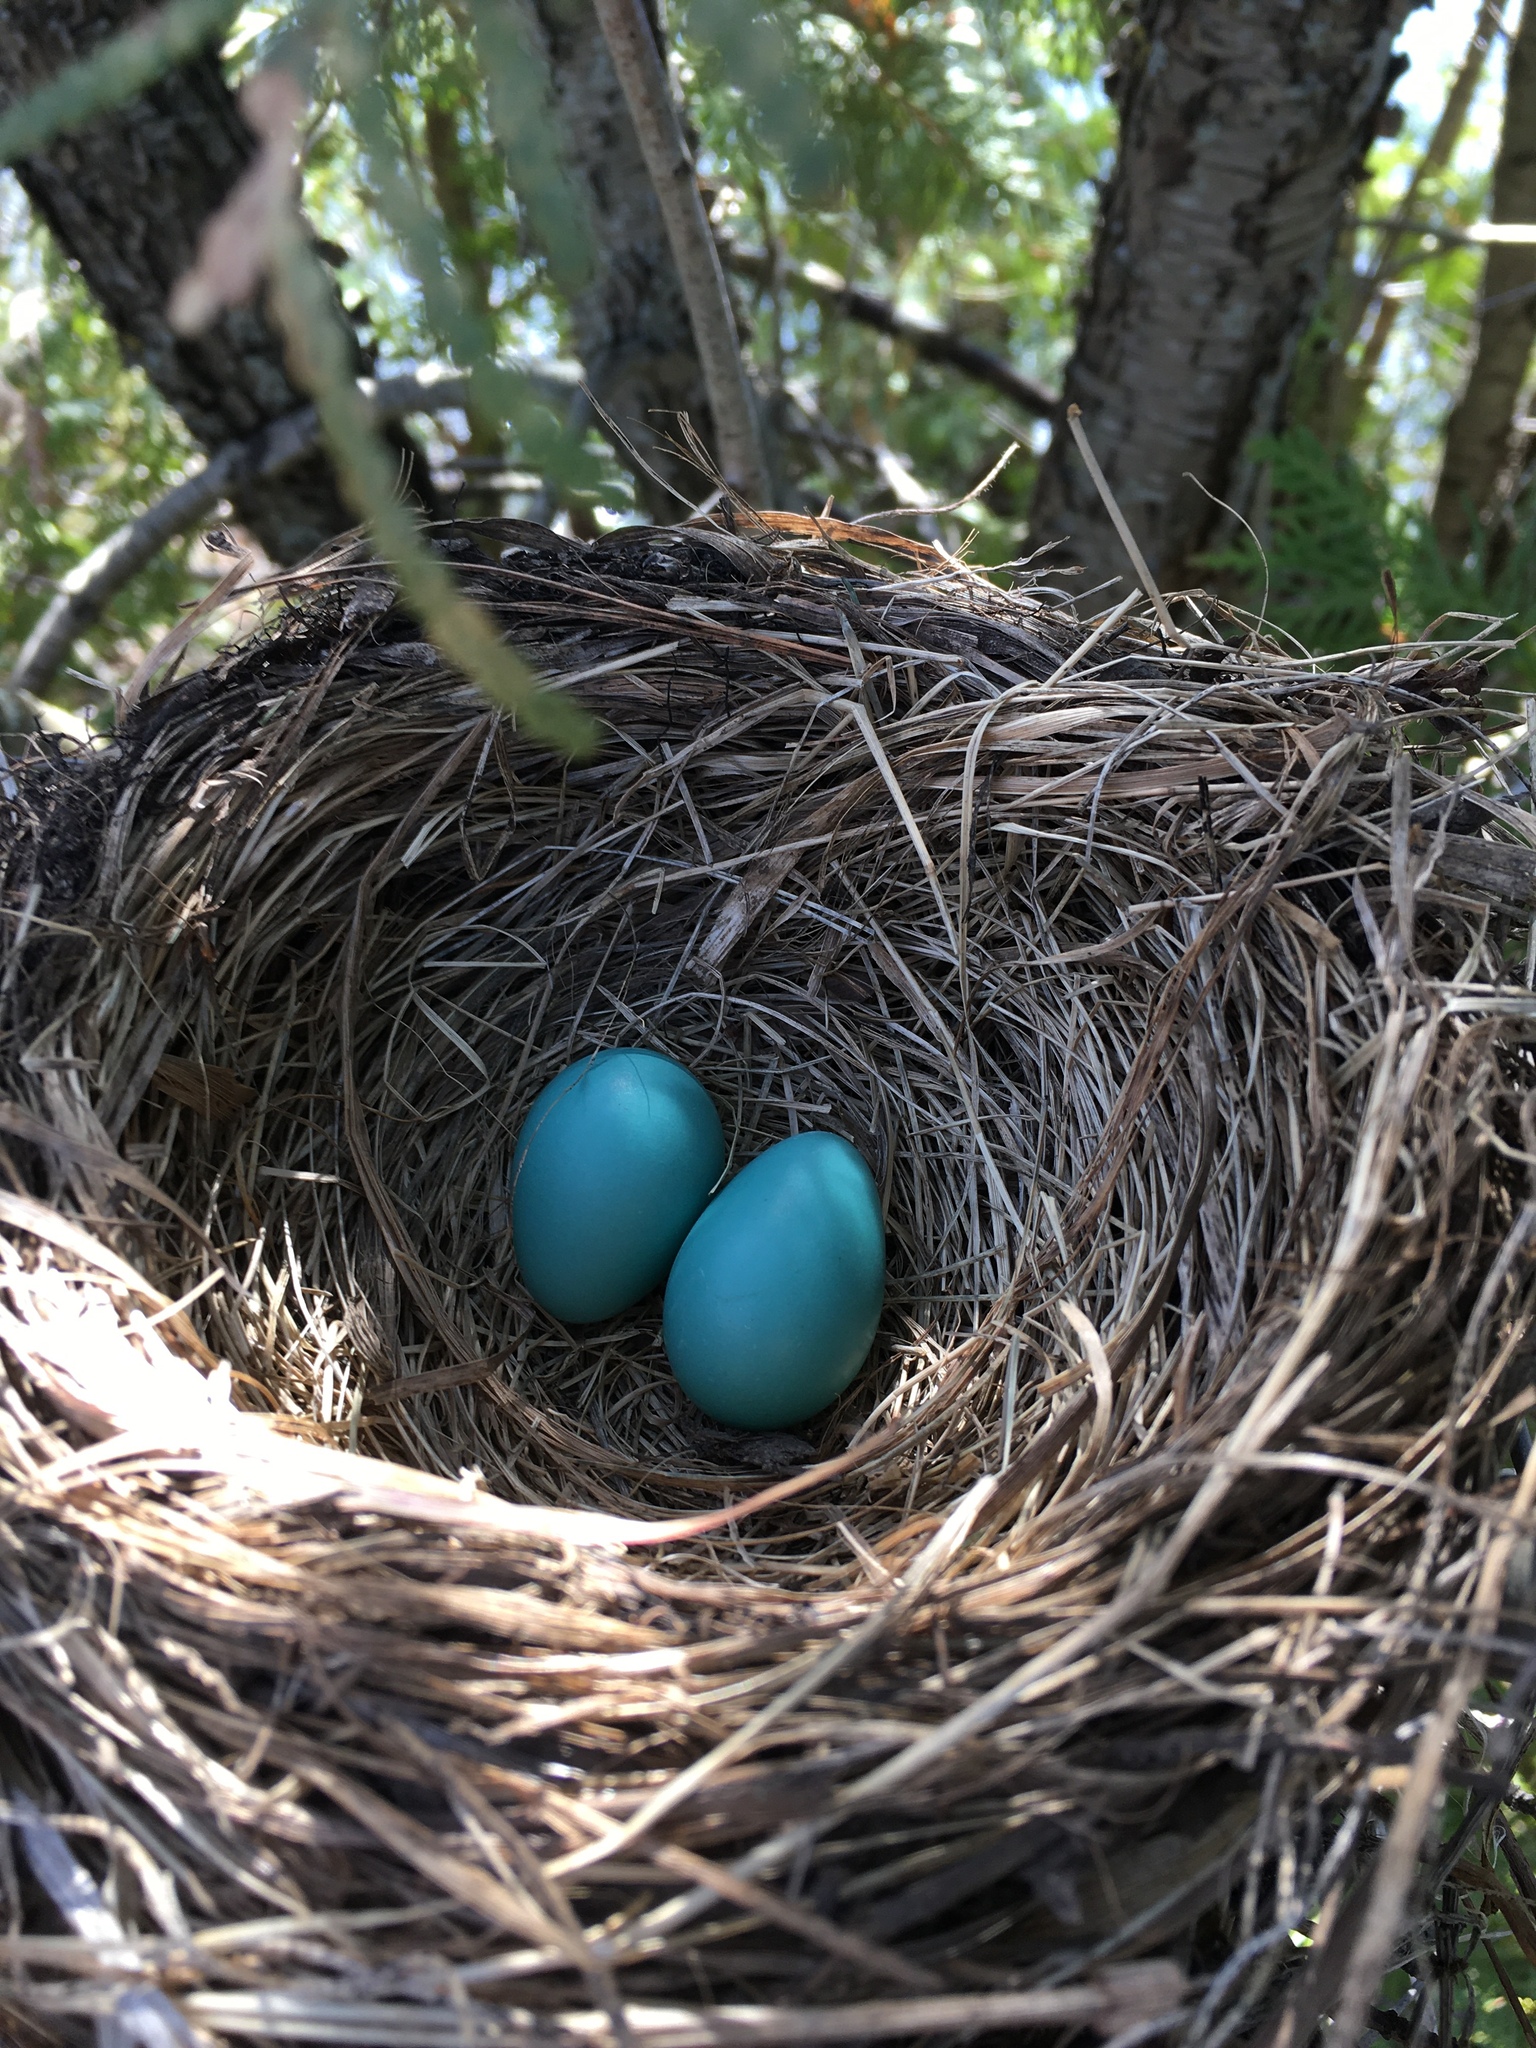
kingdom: Animalia
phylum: Chordata
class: Aves
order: Passeriformes
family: Turdidae
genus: Turdus
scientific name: Turdus migratorius
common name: American robin
